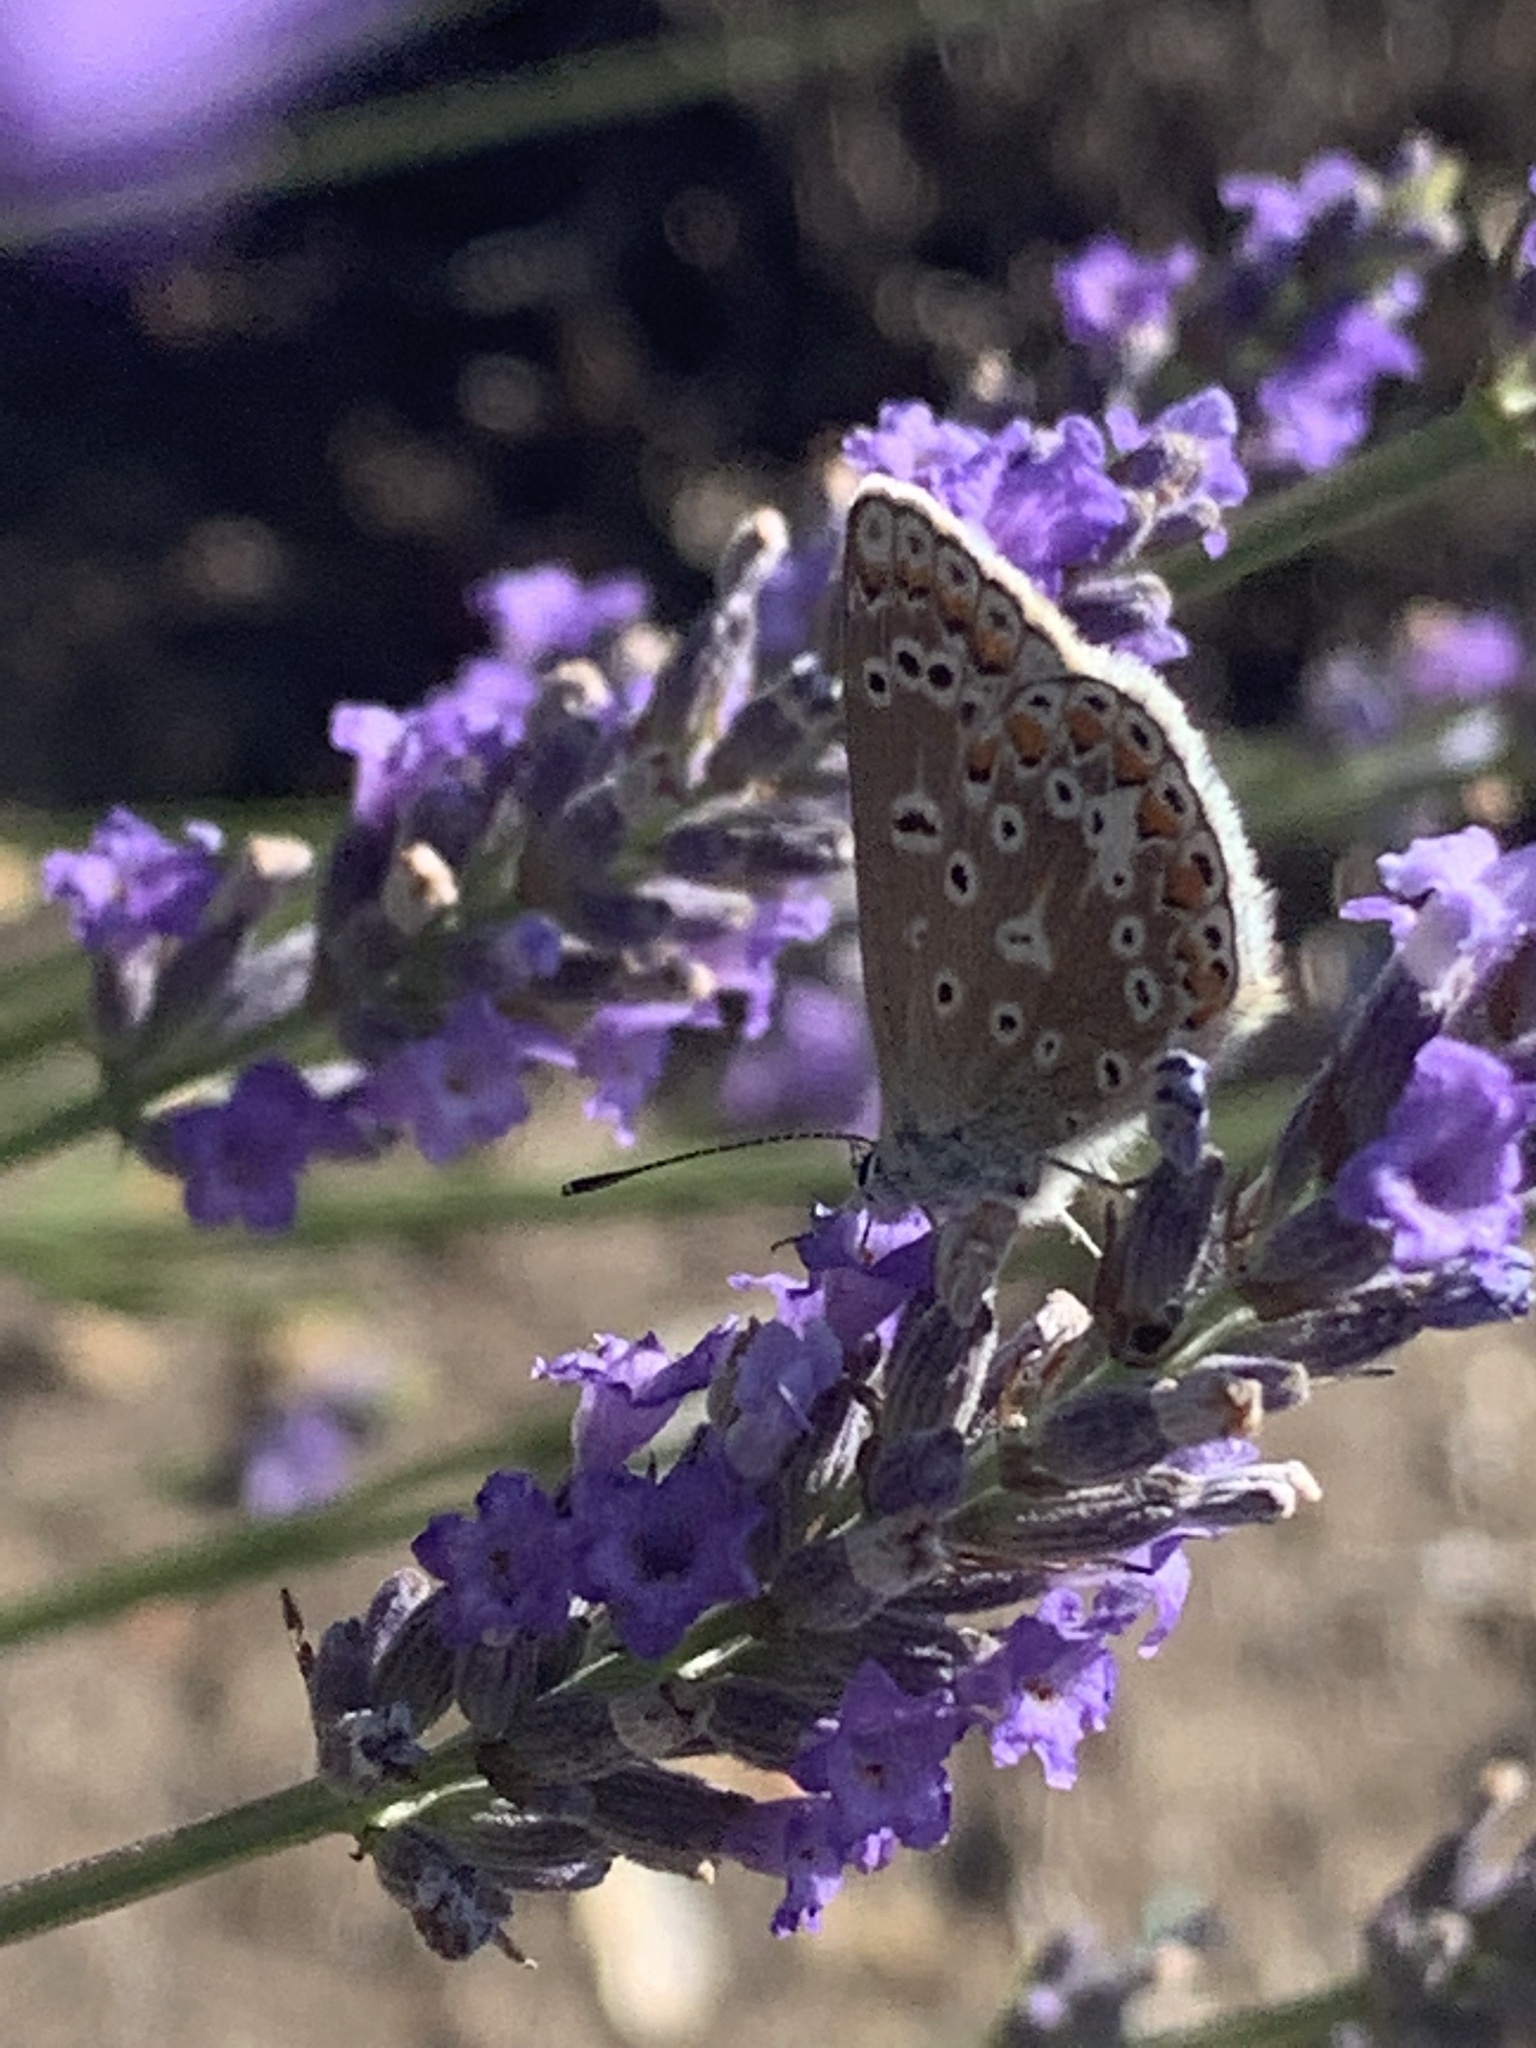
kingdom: Animalia
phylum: Arthropoda
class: Insecta
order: Lepidoptera
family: Lycaenidae
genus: Polyommatus
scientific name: Polyommatus icarus
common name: Common blue
